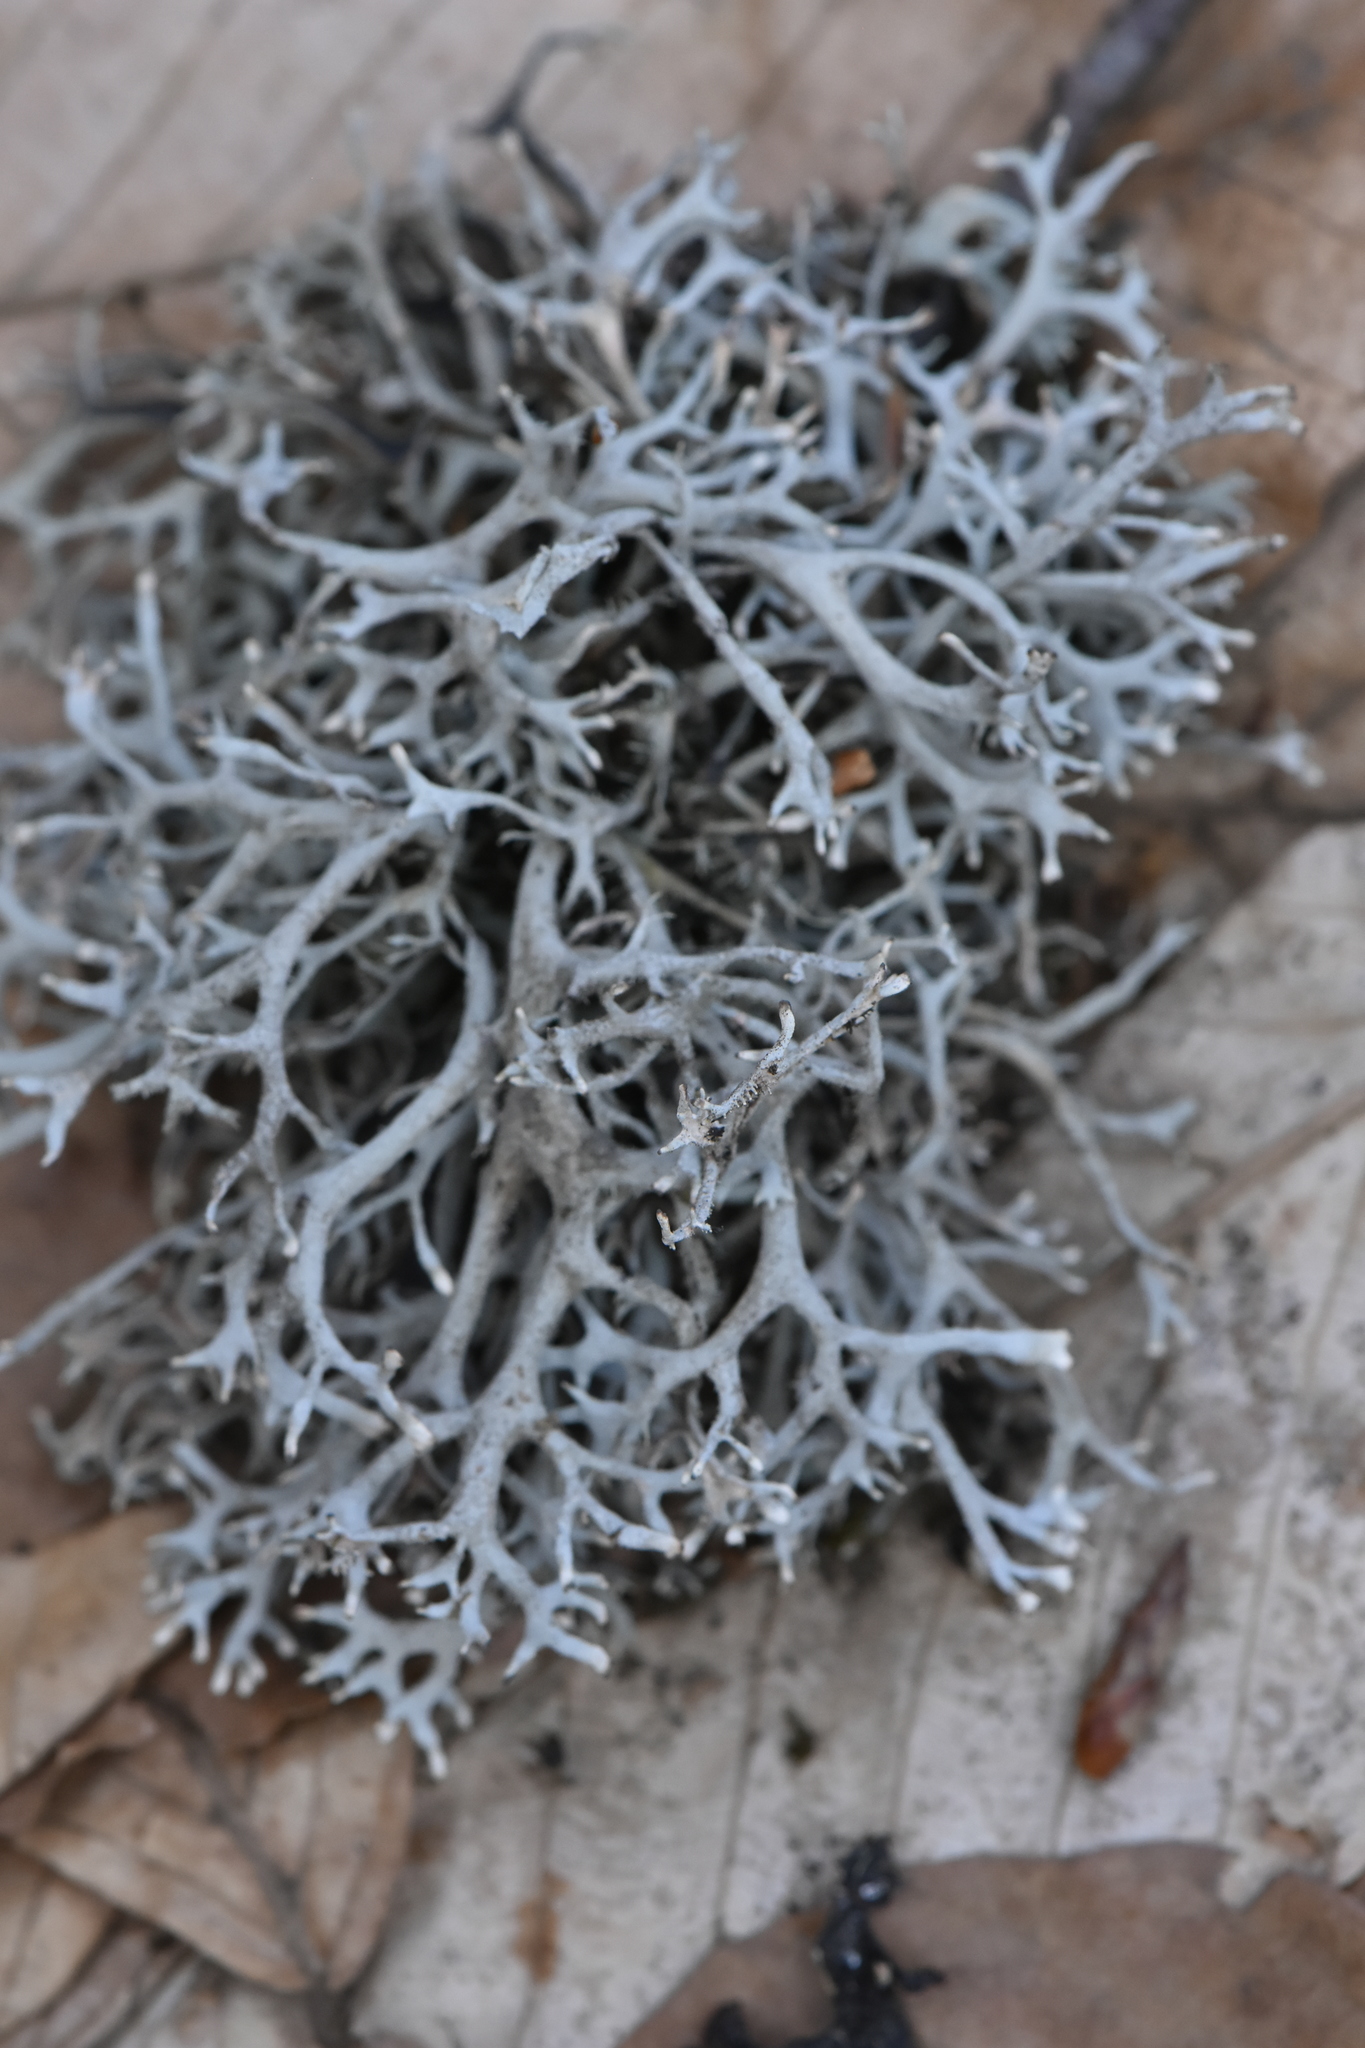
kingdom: Fungi
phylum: Ascomycota
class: Lecanoromycetes
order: Lecanorales
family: Parmeliaceae
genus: Pseudevernia
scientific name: Pseudevernia furfuracea
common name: Tree moss
